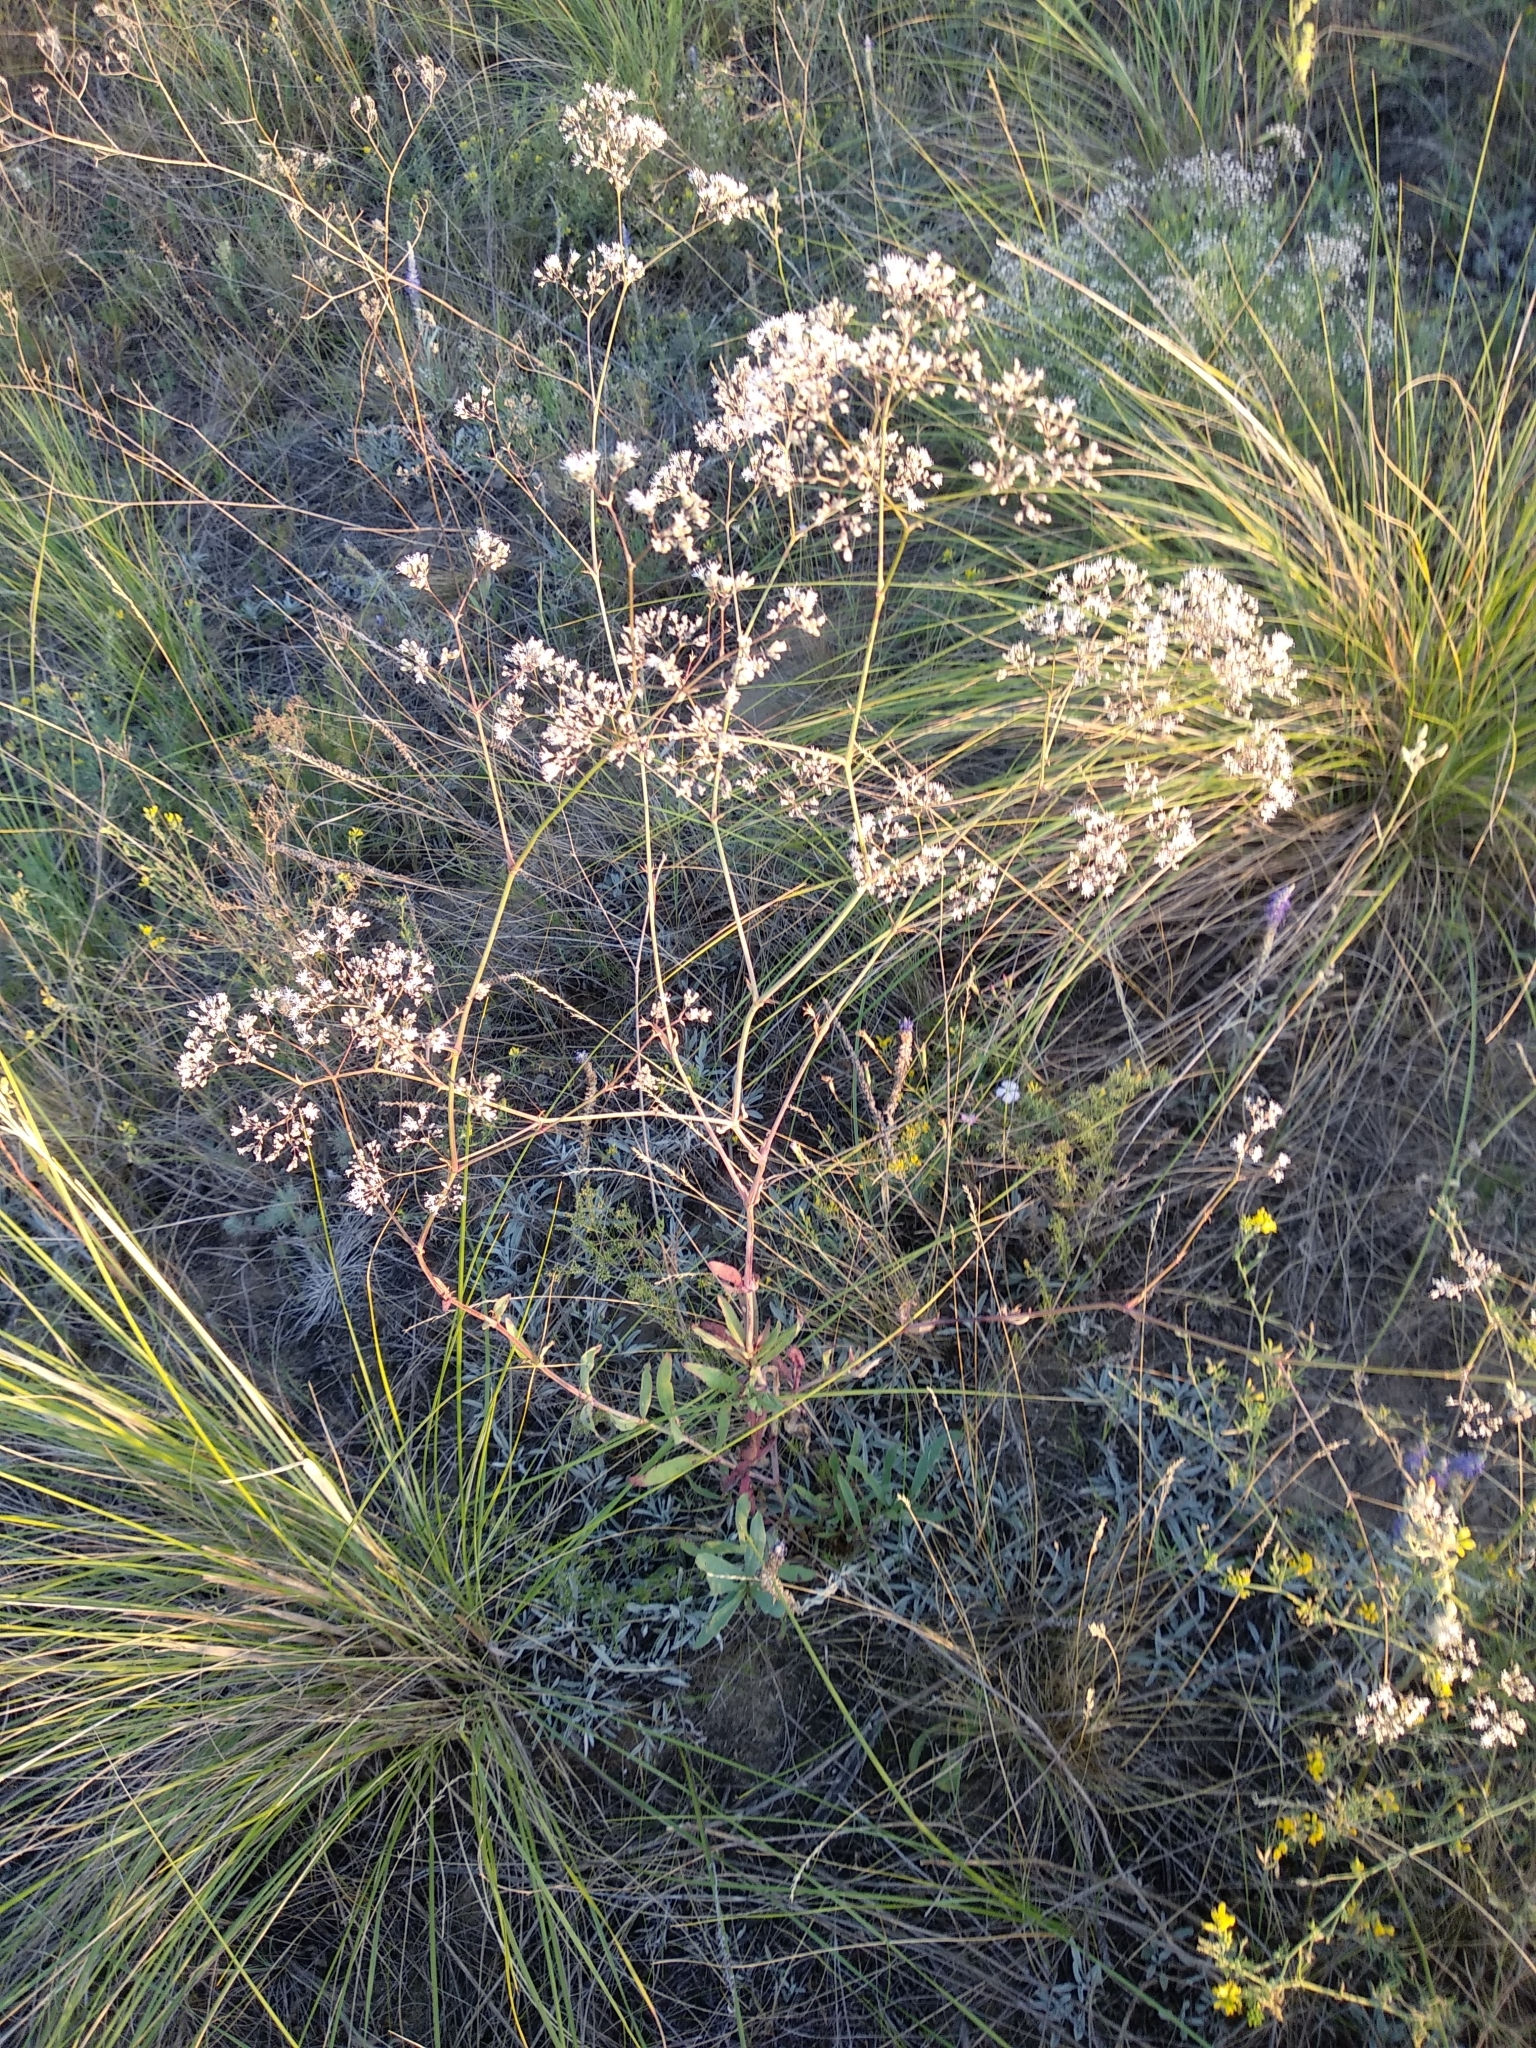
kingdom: Plantae
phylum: Tracheophyta
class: Magnoliopsida
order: Caryophyllales
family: Caryophyllaceae
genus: Gypsophila
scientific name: Gypsophila paniculata
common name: Baby's-breath
